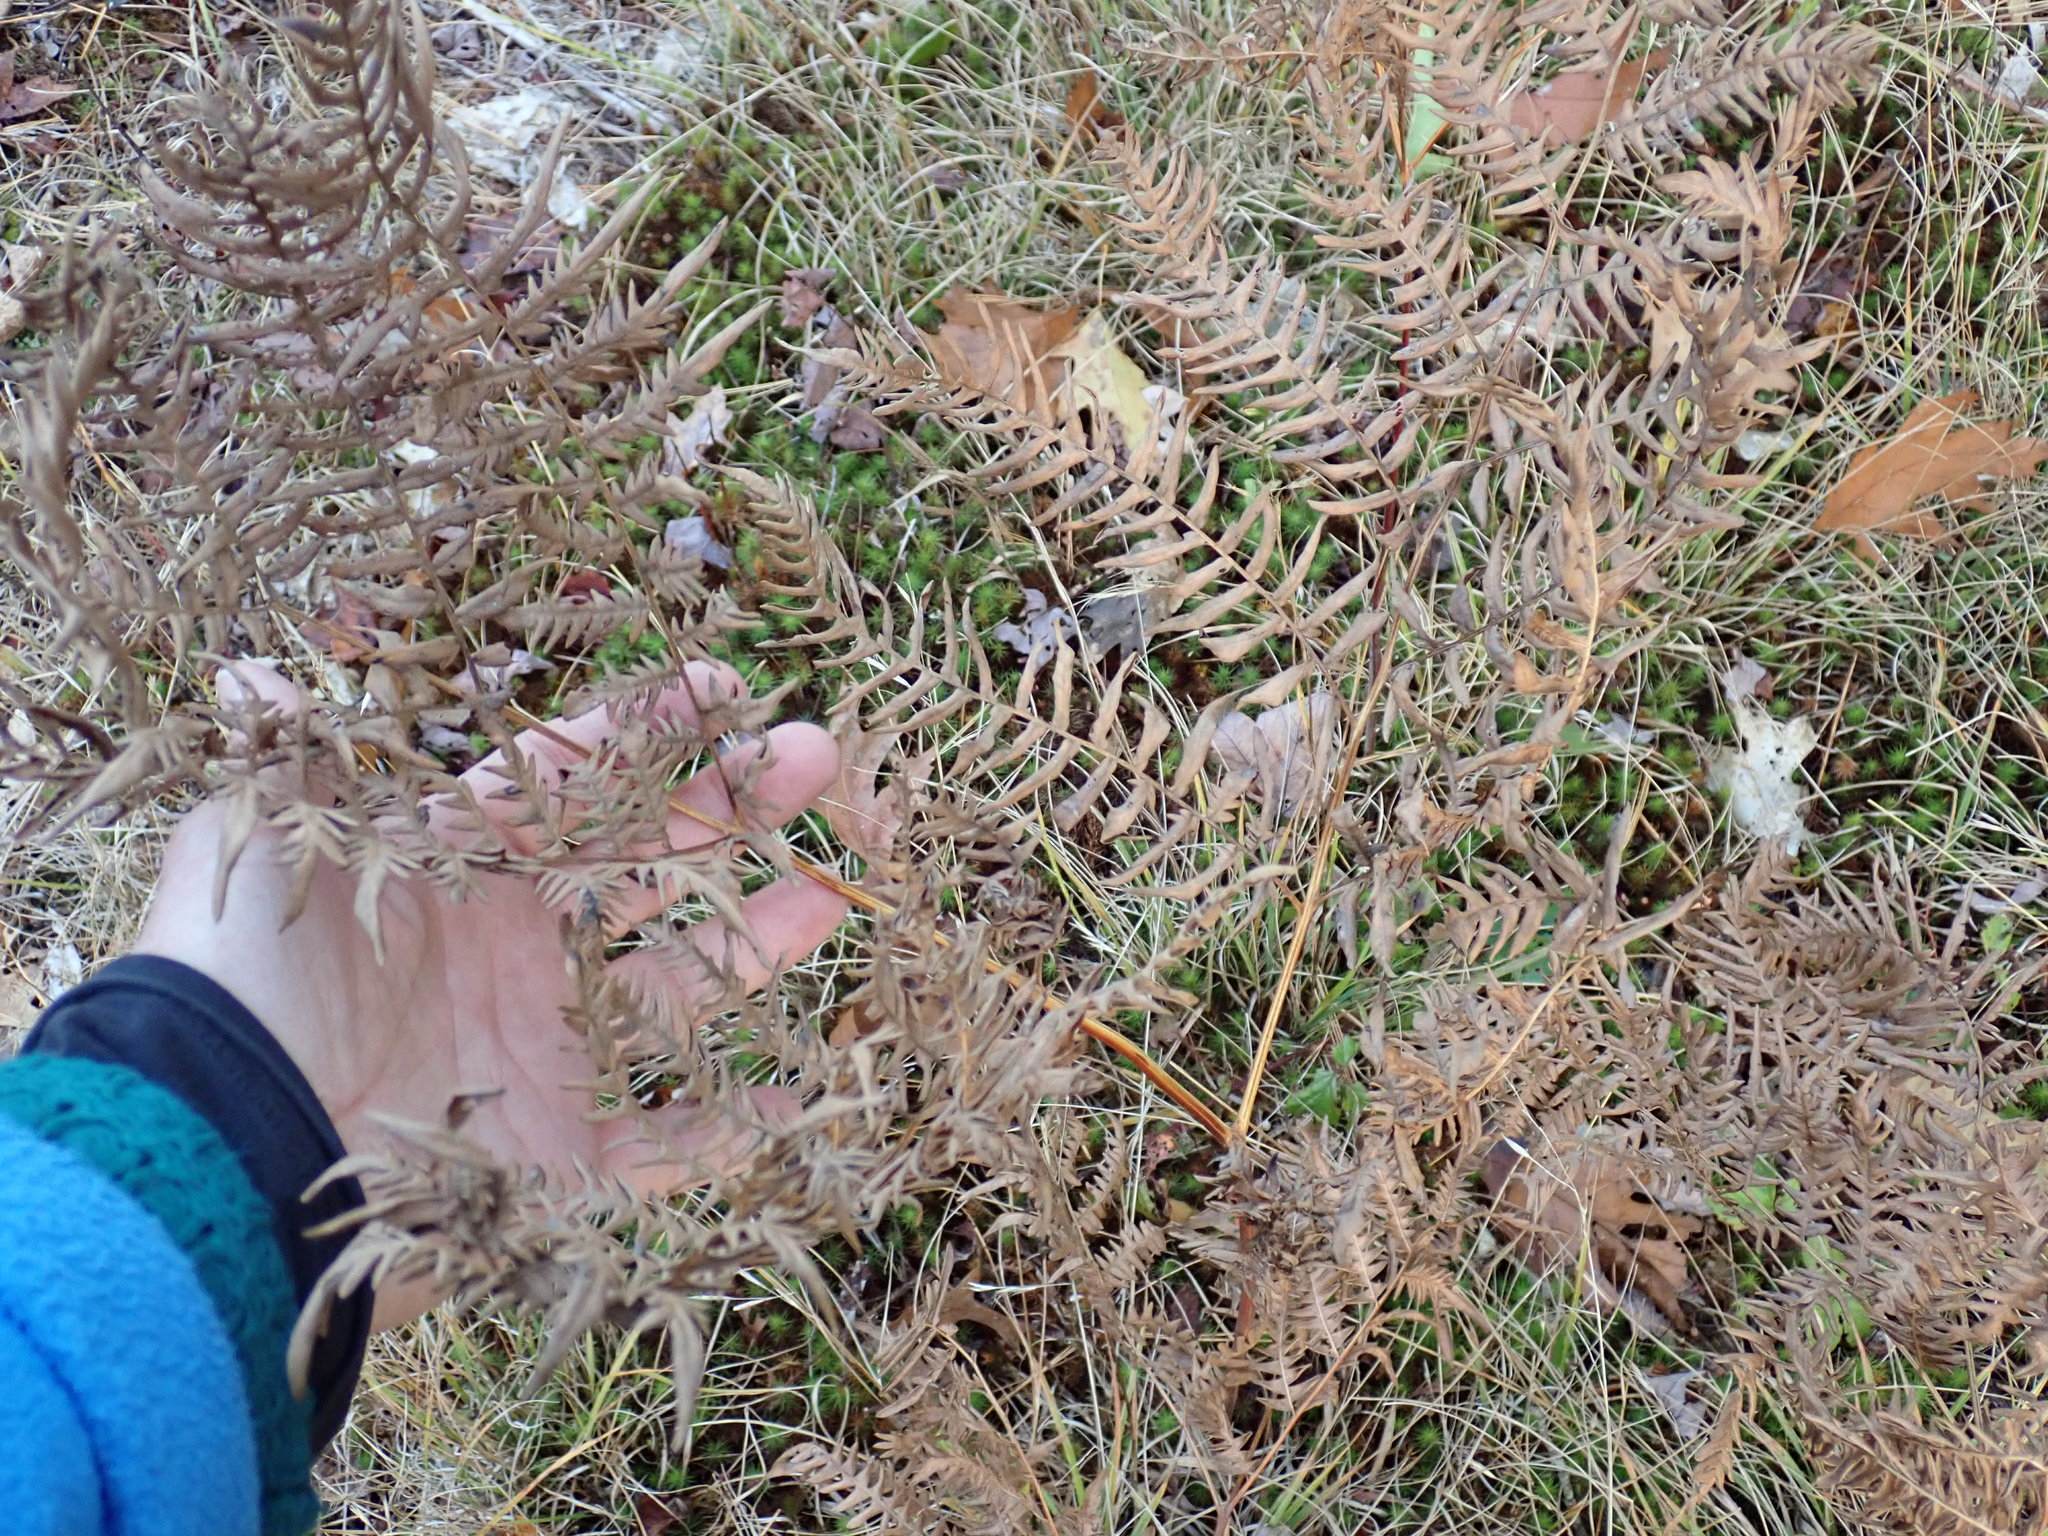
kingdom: Plantae
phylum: Tracheophyta
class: Polypodiopsida
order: Polypodiales
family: Dennstaedtiaceae
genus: Pteridium
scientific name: Pteridium aquilinum
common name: Bracken
